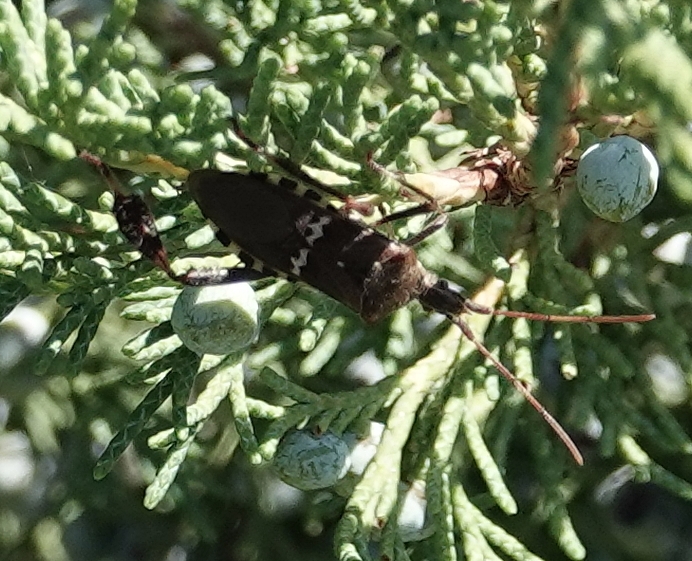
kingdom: Animalia
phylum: Arthropoda
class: Insecta
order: Hemiptera
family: Coreidae
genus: Leptoglossus
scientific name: Leptoglossus clypealis
